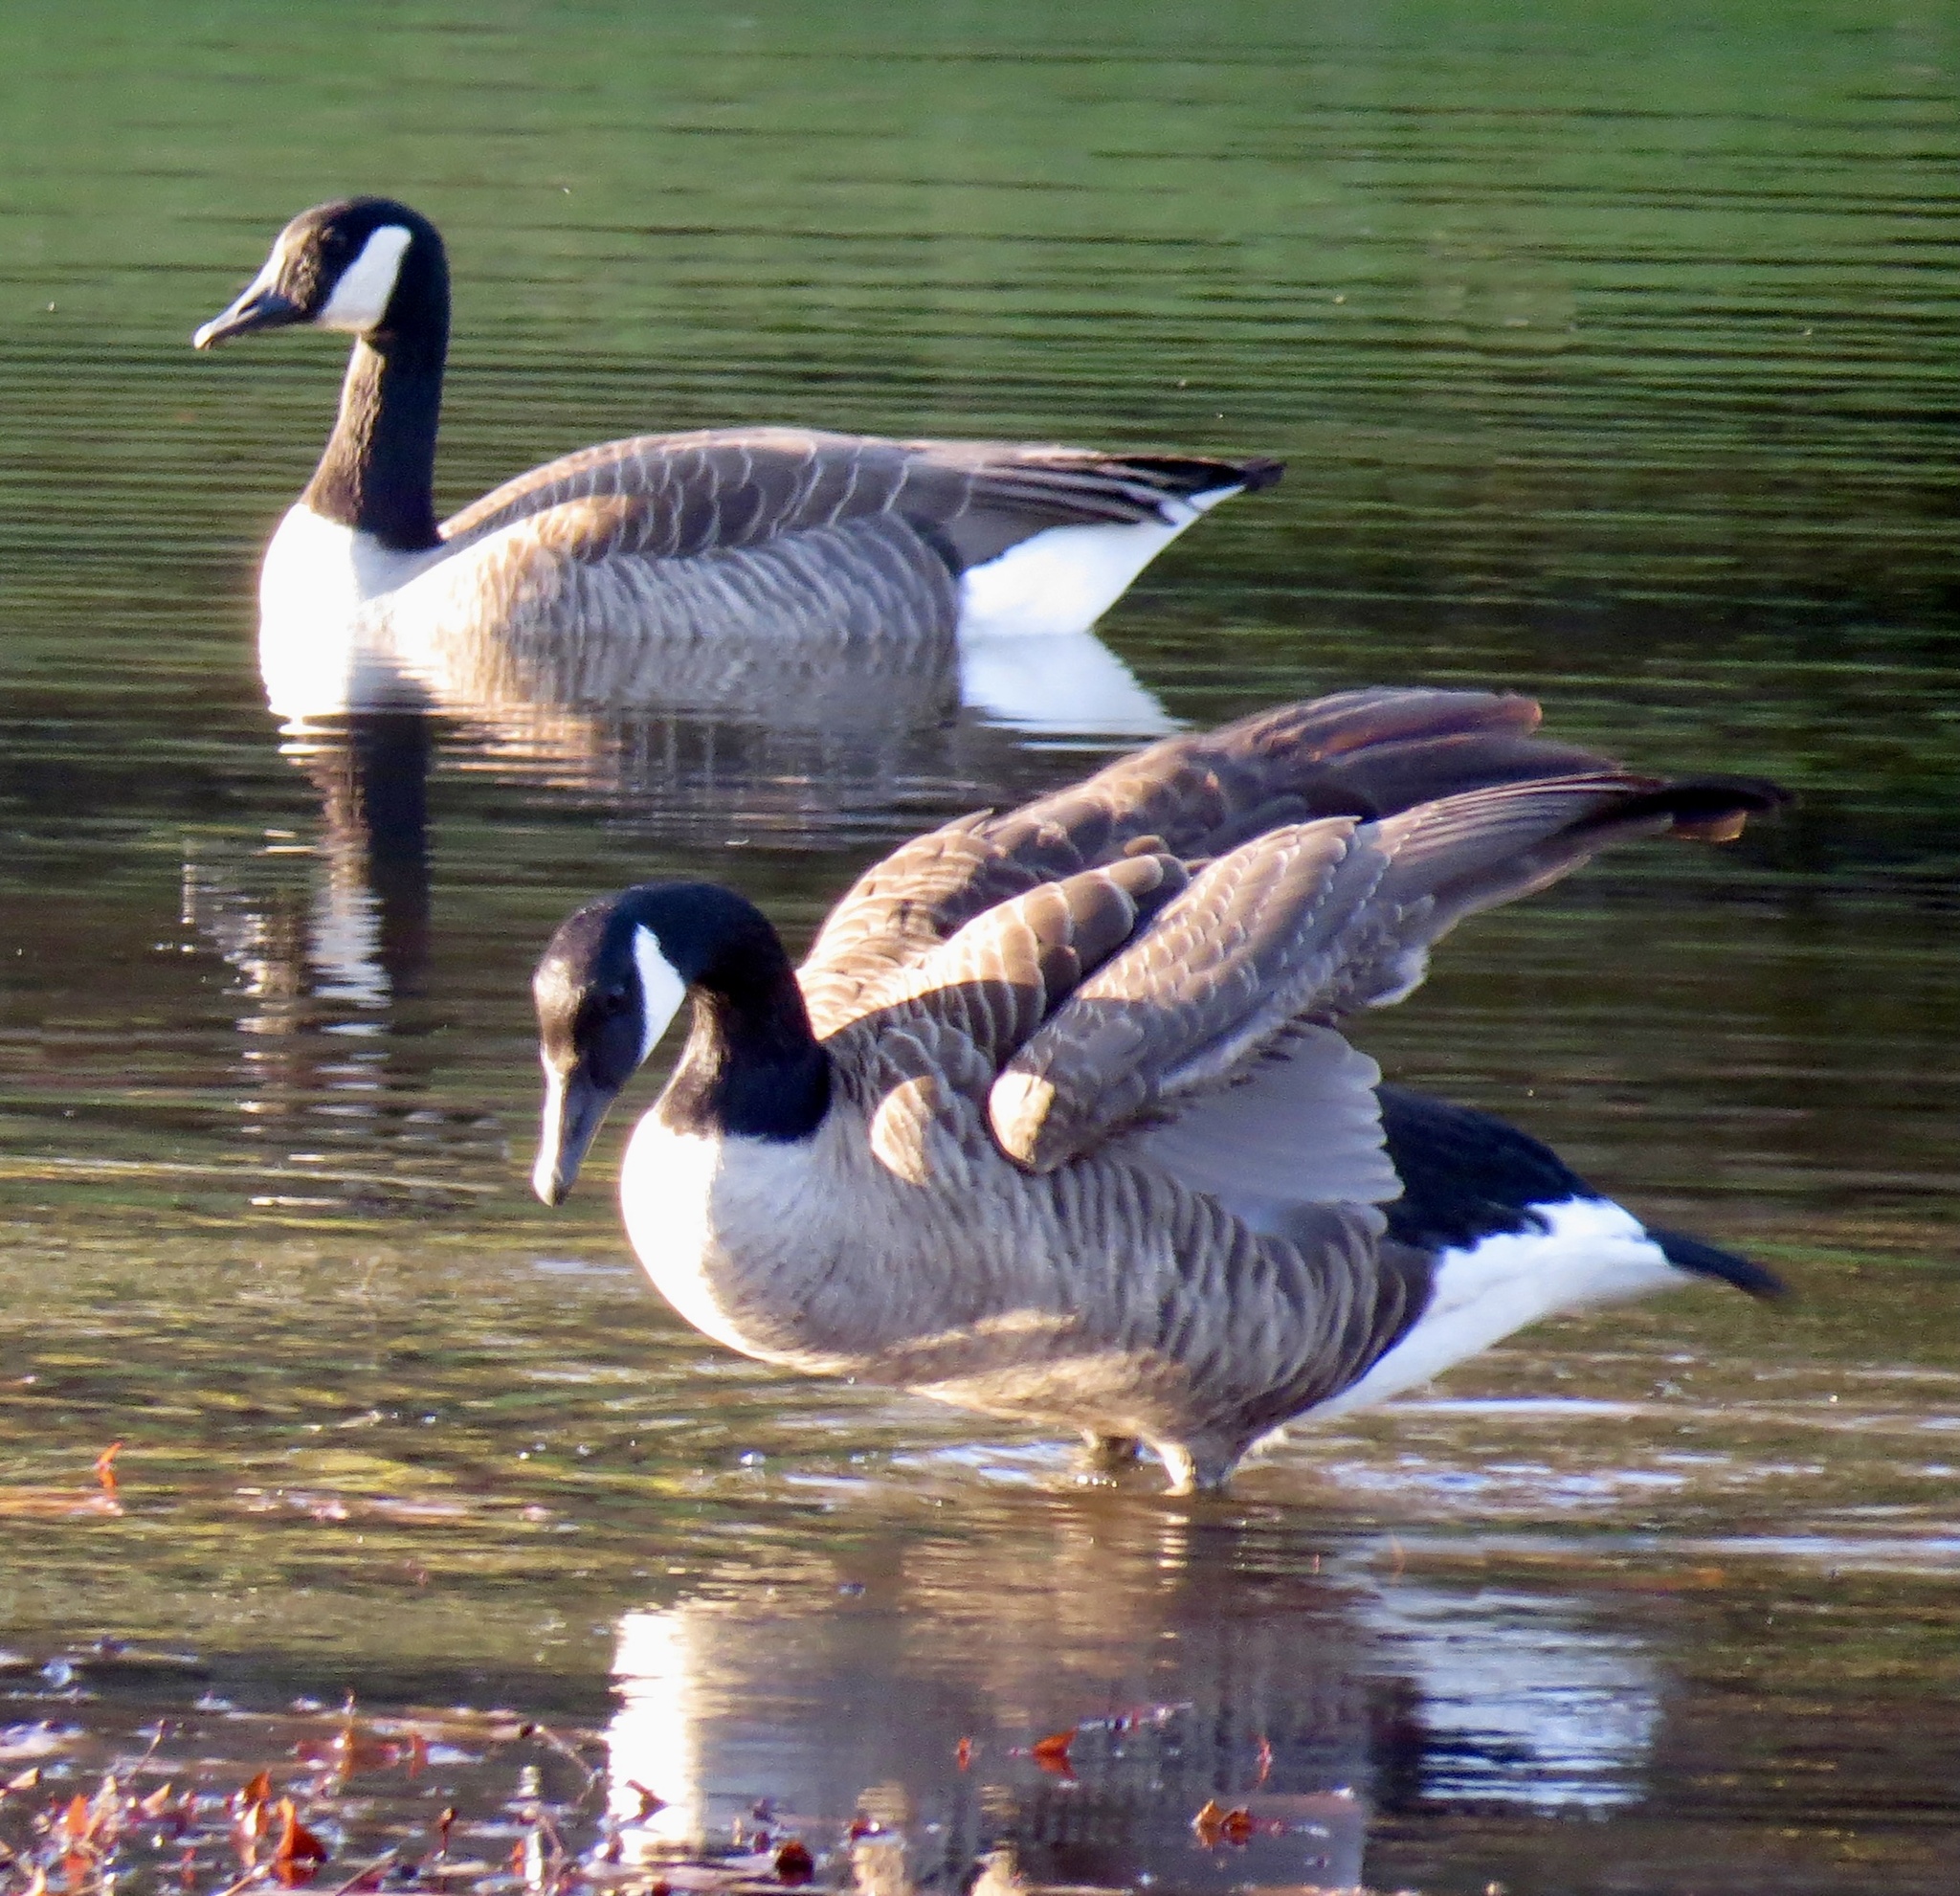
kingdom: Animalia
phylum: Chordata
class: Aves
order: Anseriformes
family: Anatidae
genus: Branta
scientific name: Branta canadensis
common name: Canada goose
